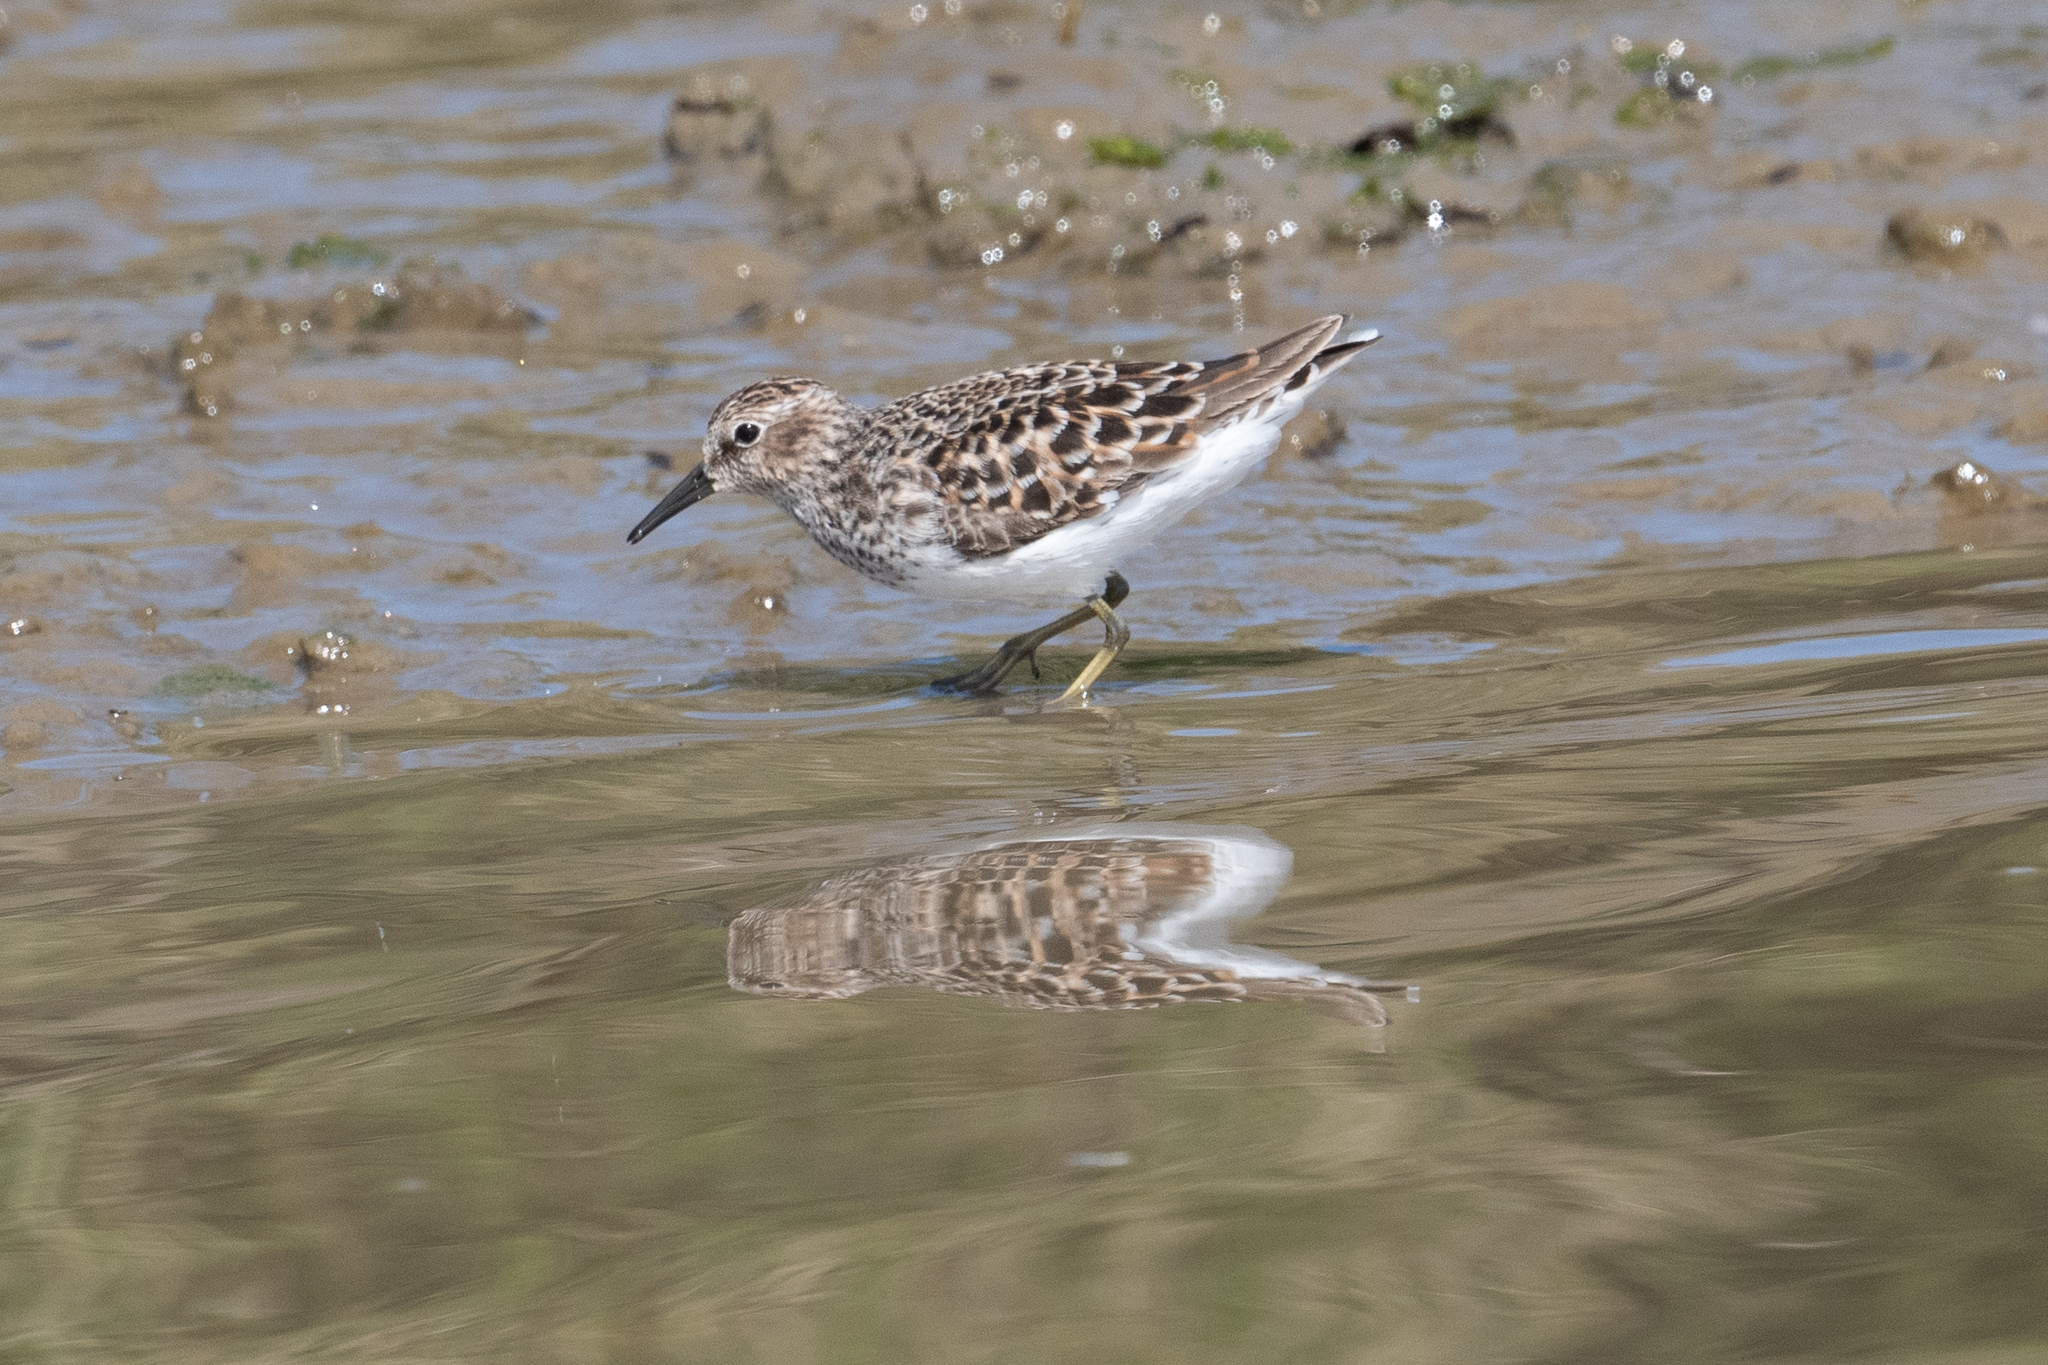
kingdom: Animalia
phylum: Chordata
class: Aves
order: Charadriiformes
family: Scolopacidae
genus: Calidris
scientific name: Calidris minutilla
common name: Least sandpiper
